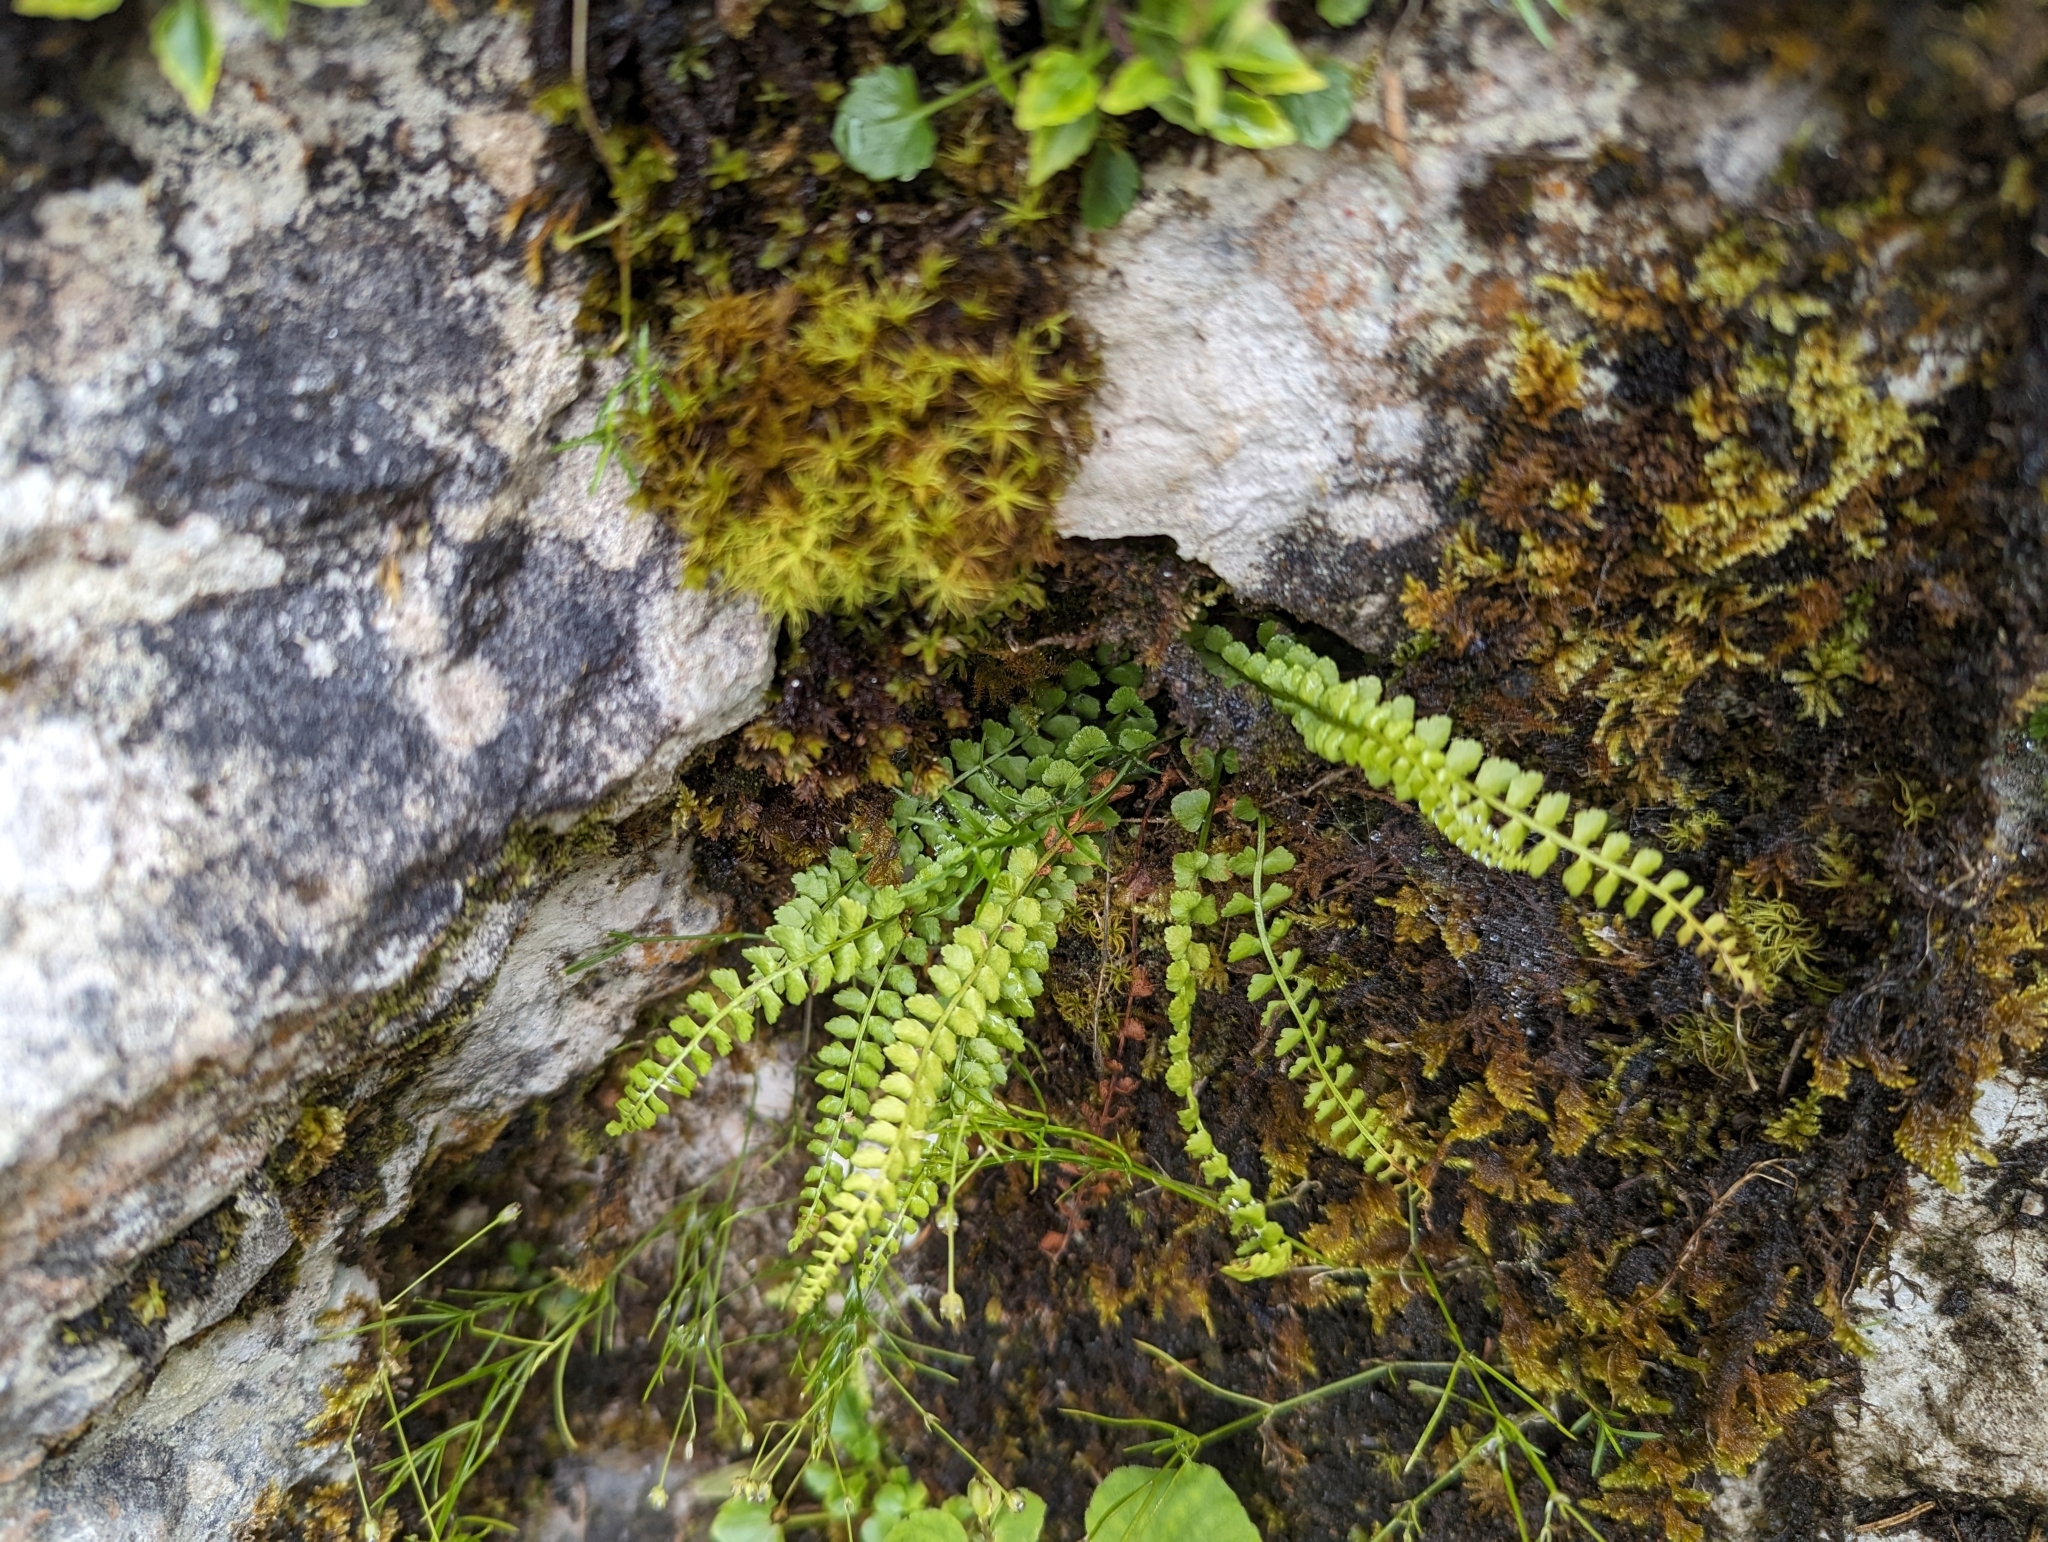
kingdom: Plantae
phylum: Tracheophyta
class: Polypodiopsida
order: Polypodiales
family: Aspleniaceae
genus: Asplenium
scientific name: Asplenium viride
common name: Green spleenwort
